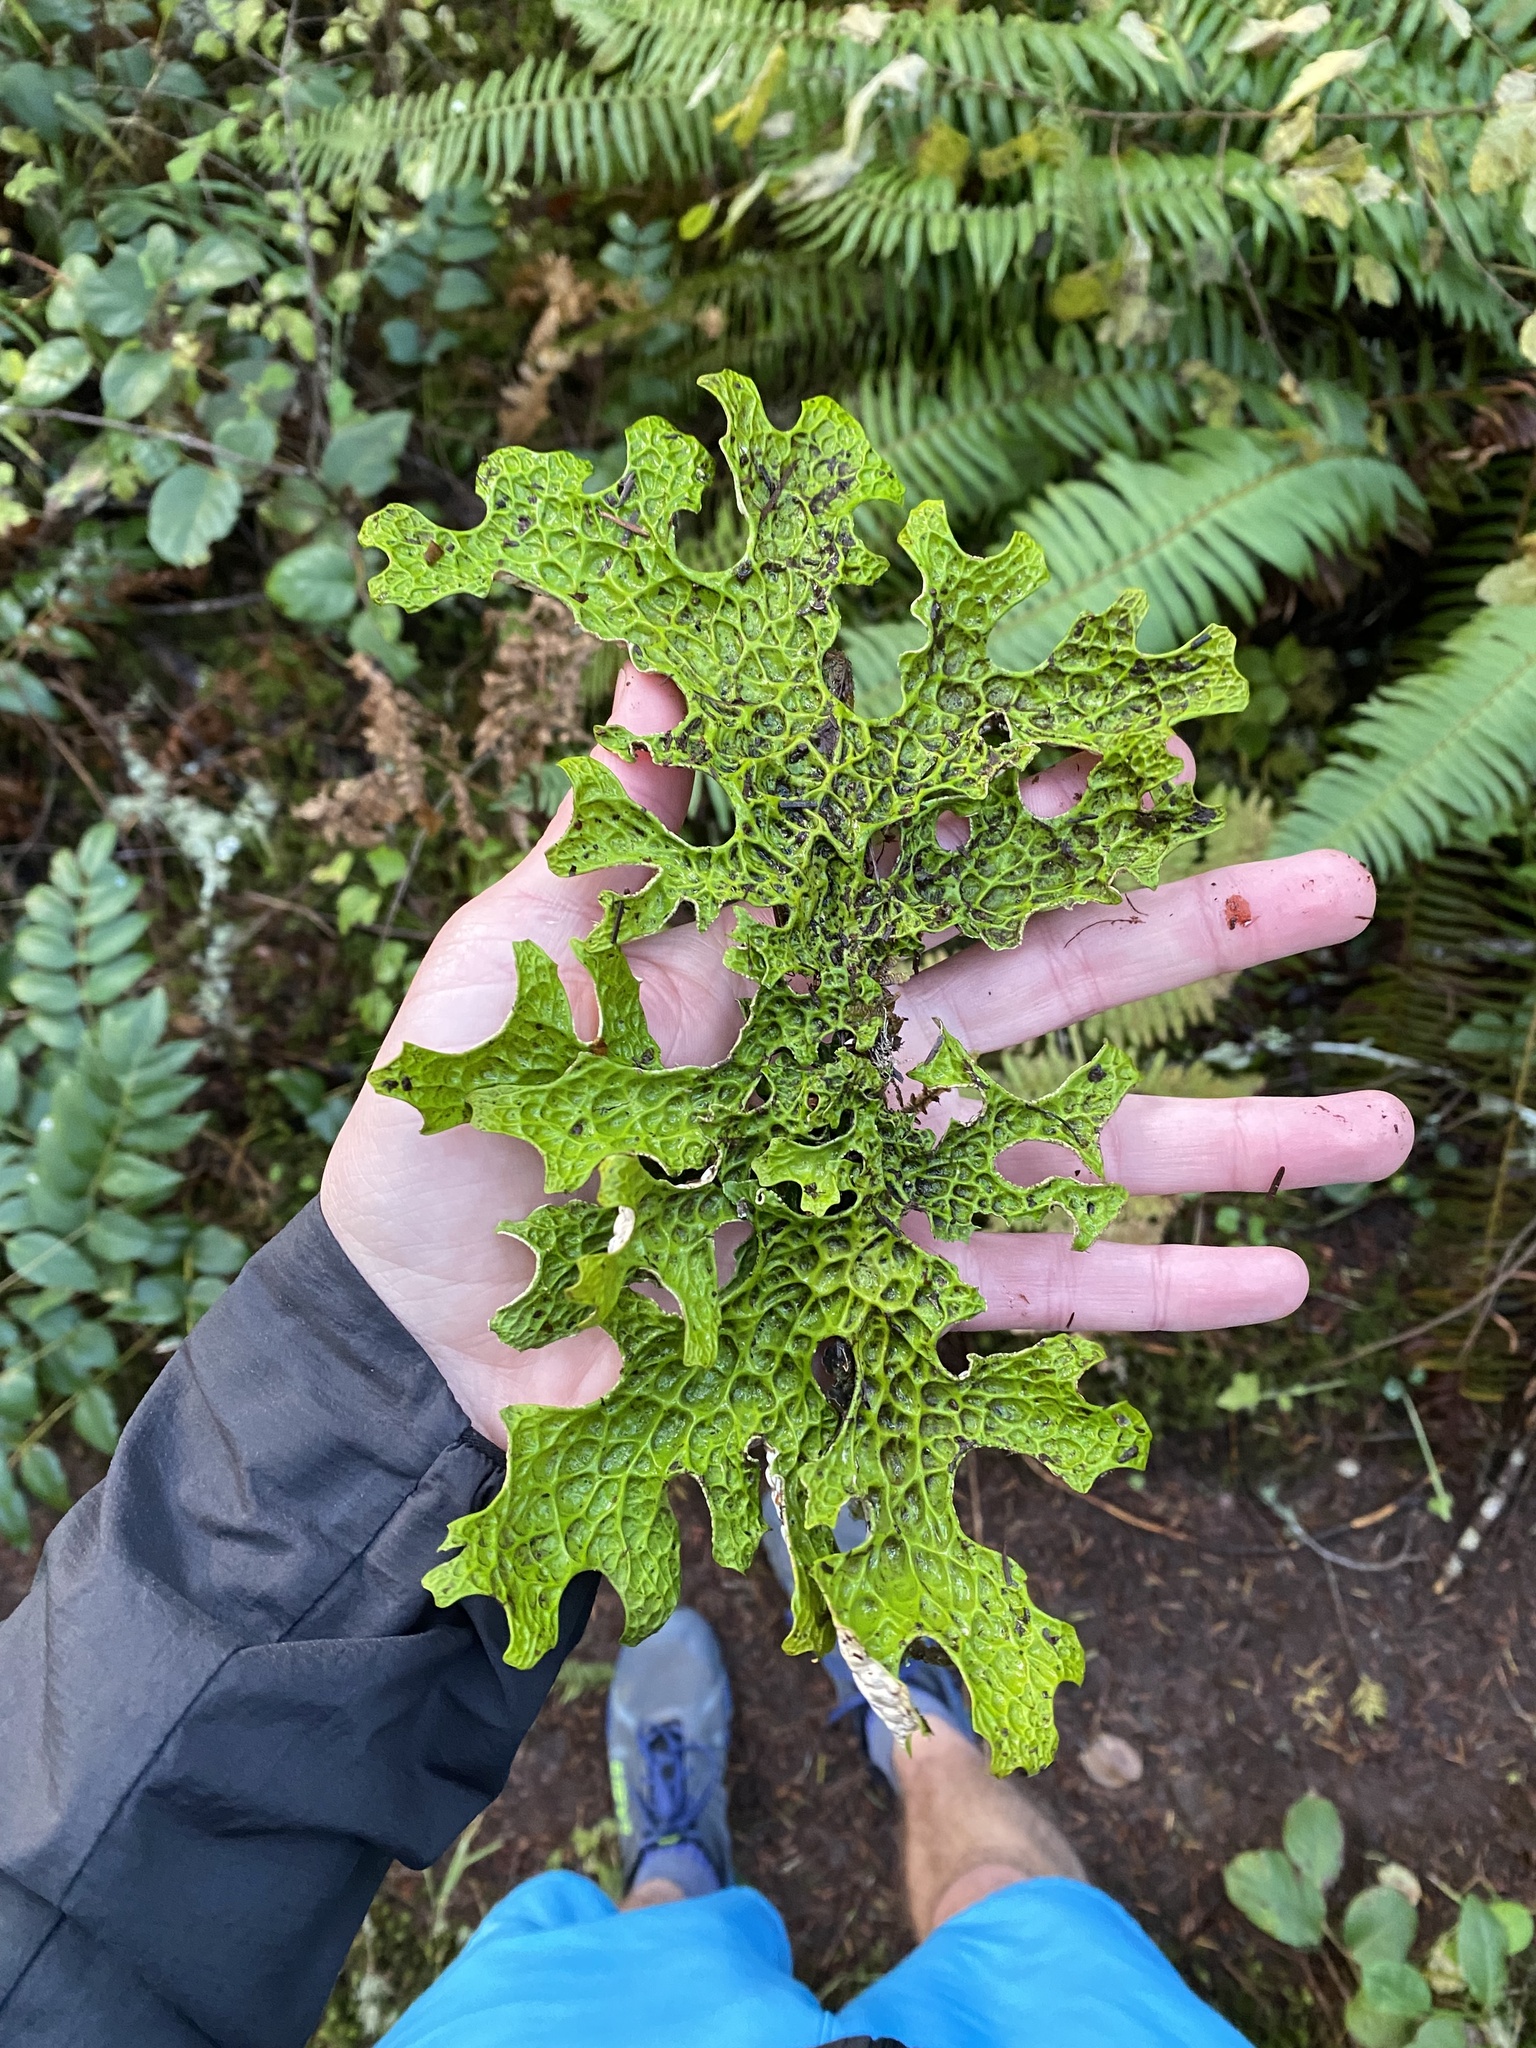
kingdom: Fungi
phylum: Ascomycota
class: Lecanoromycetes
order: Peltigerales
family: Lobariaceae
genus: Lobaria
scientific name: Lobaria pulmonaria
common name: Lungwort
